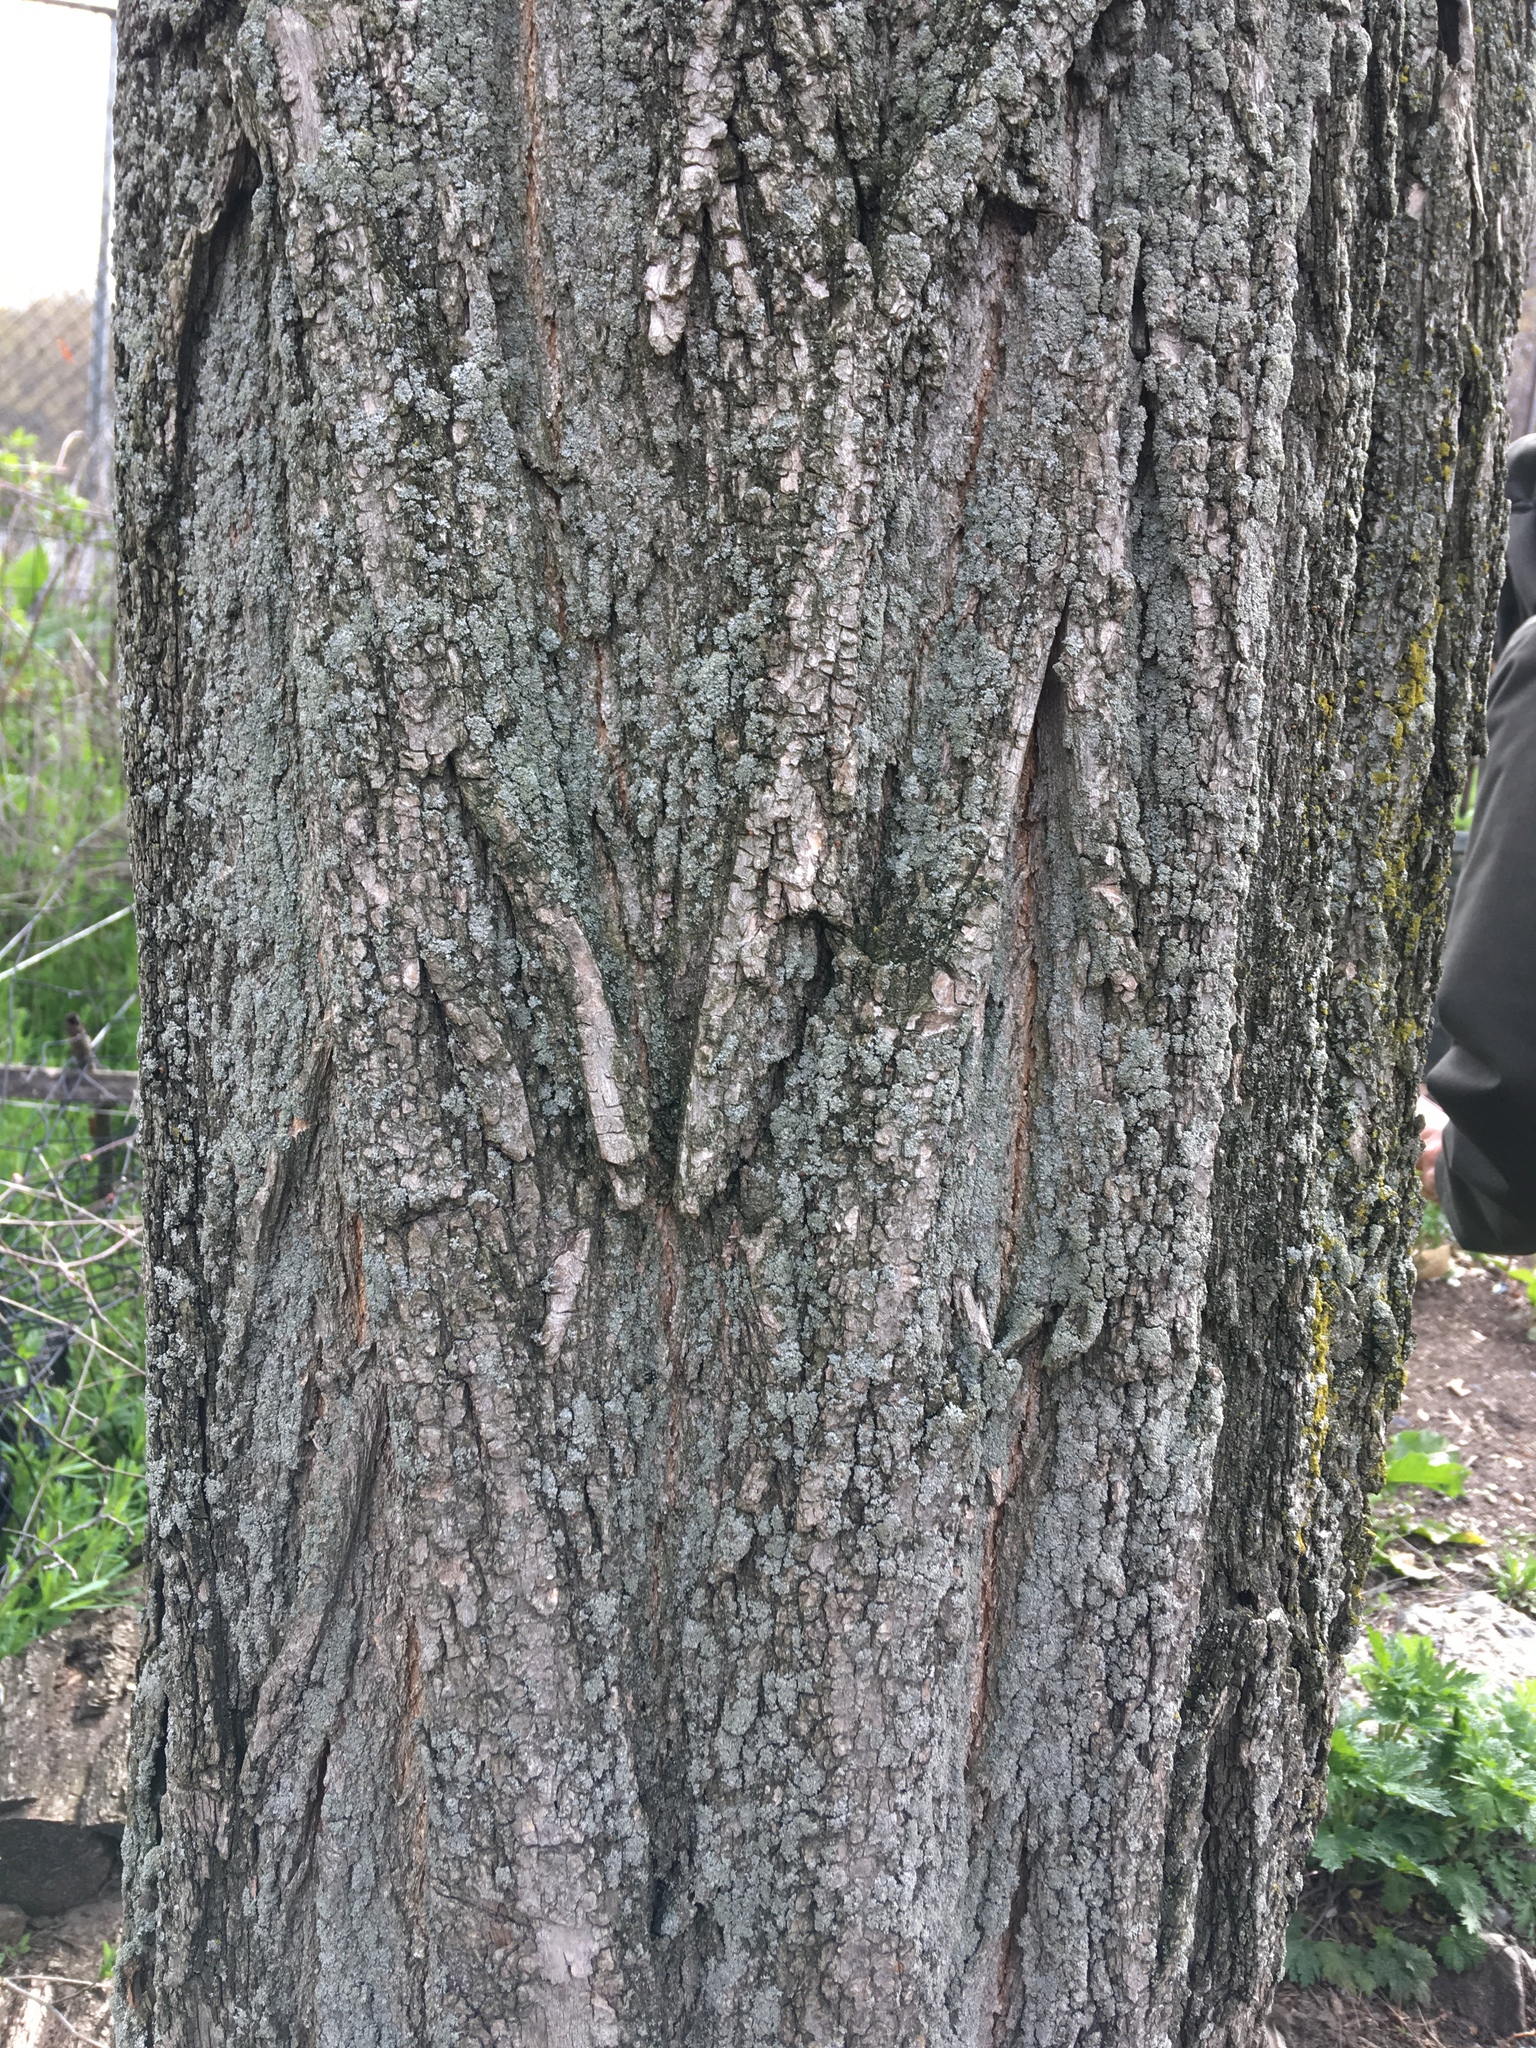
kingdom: Plantae
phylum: Tracheophyta
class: Magnoliopsida
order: Fabales
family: Fabaceae
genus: Robinia
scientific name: Robinia pseudoacacia
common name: Black locust
